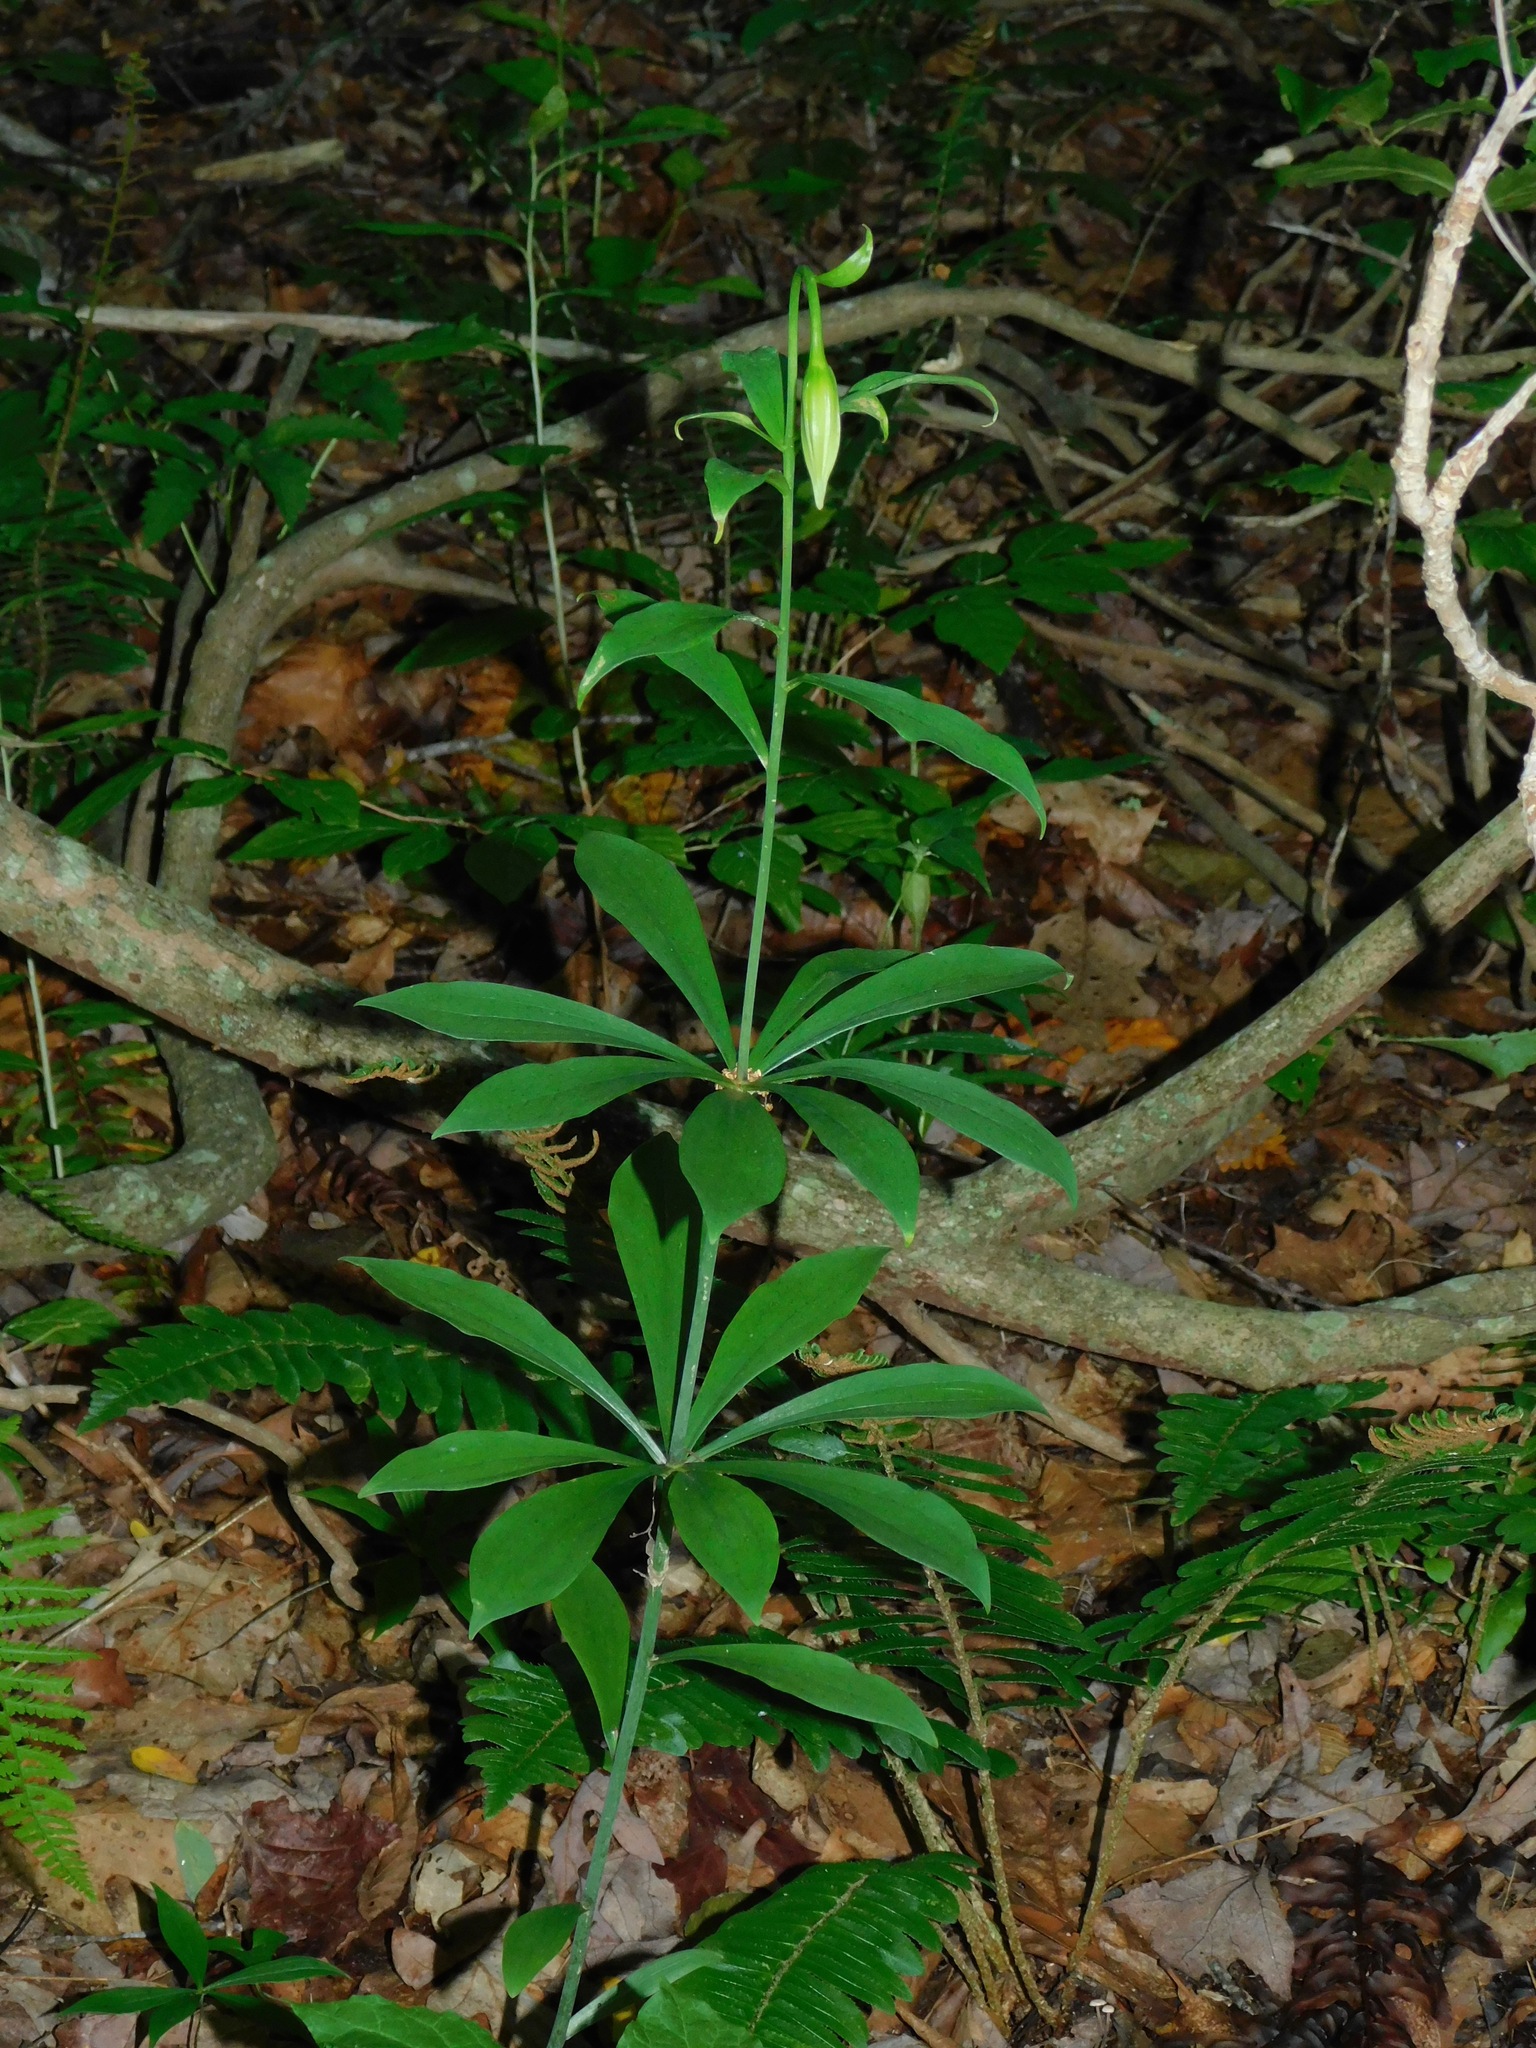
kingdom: Plantae
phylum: Tracheophyta
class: Liliopsida
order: Liliales
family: Liliaceae
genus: Lilium
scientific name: Lilium michauxii
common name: Carolina lily
